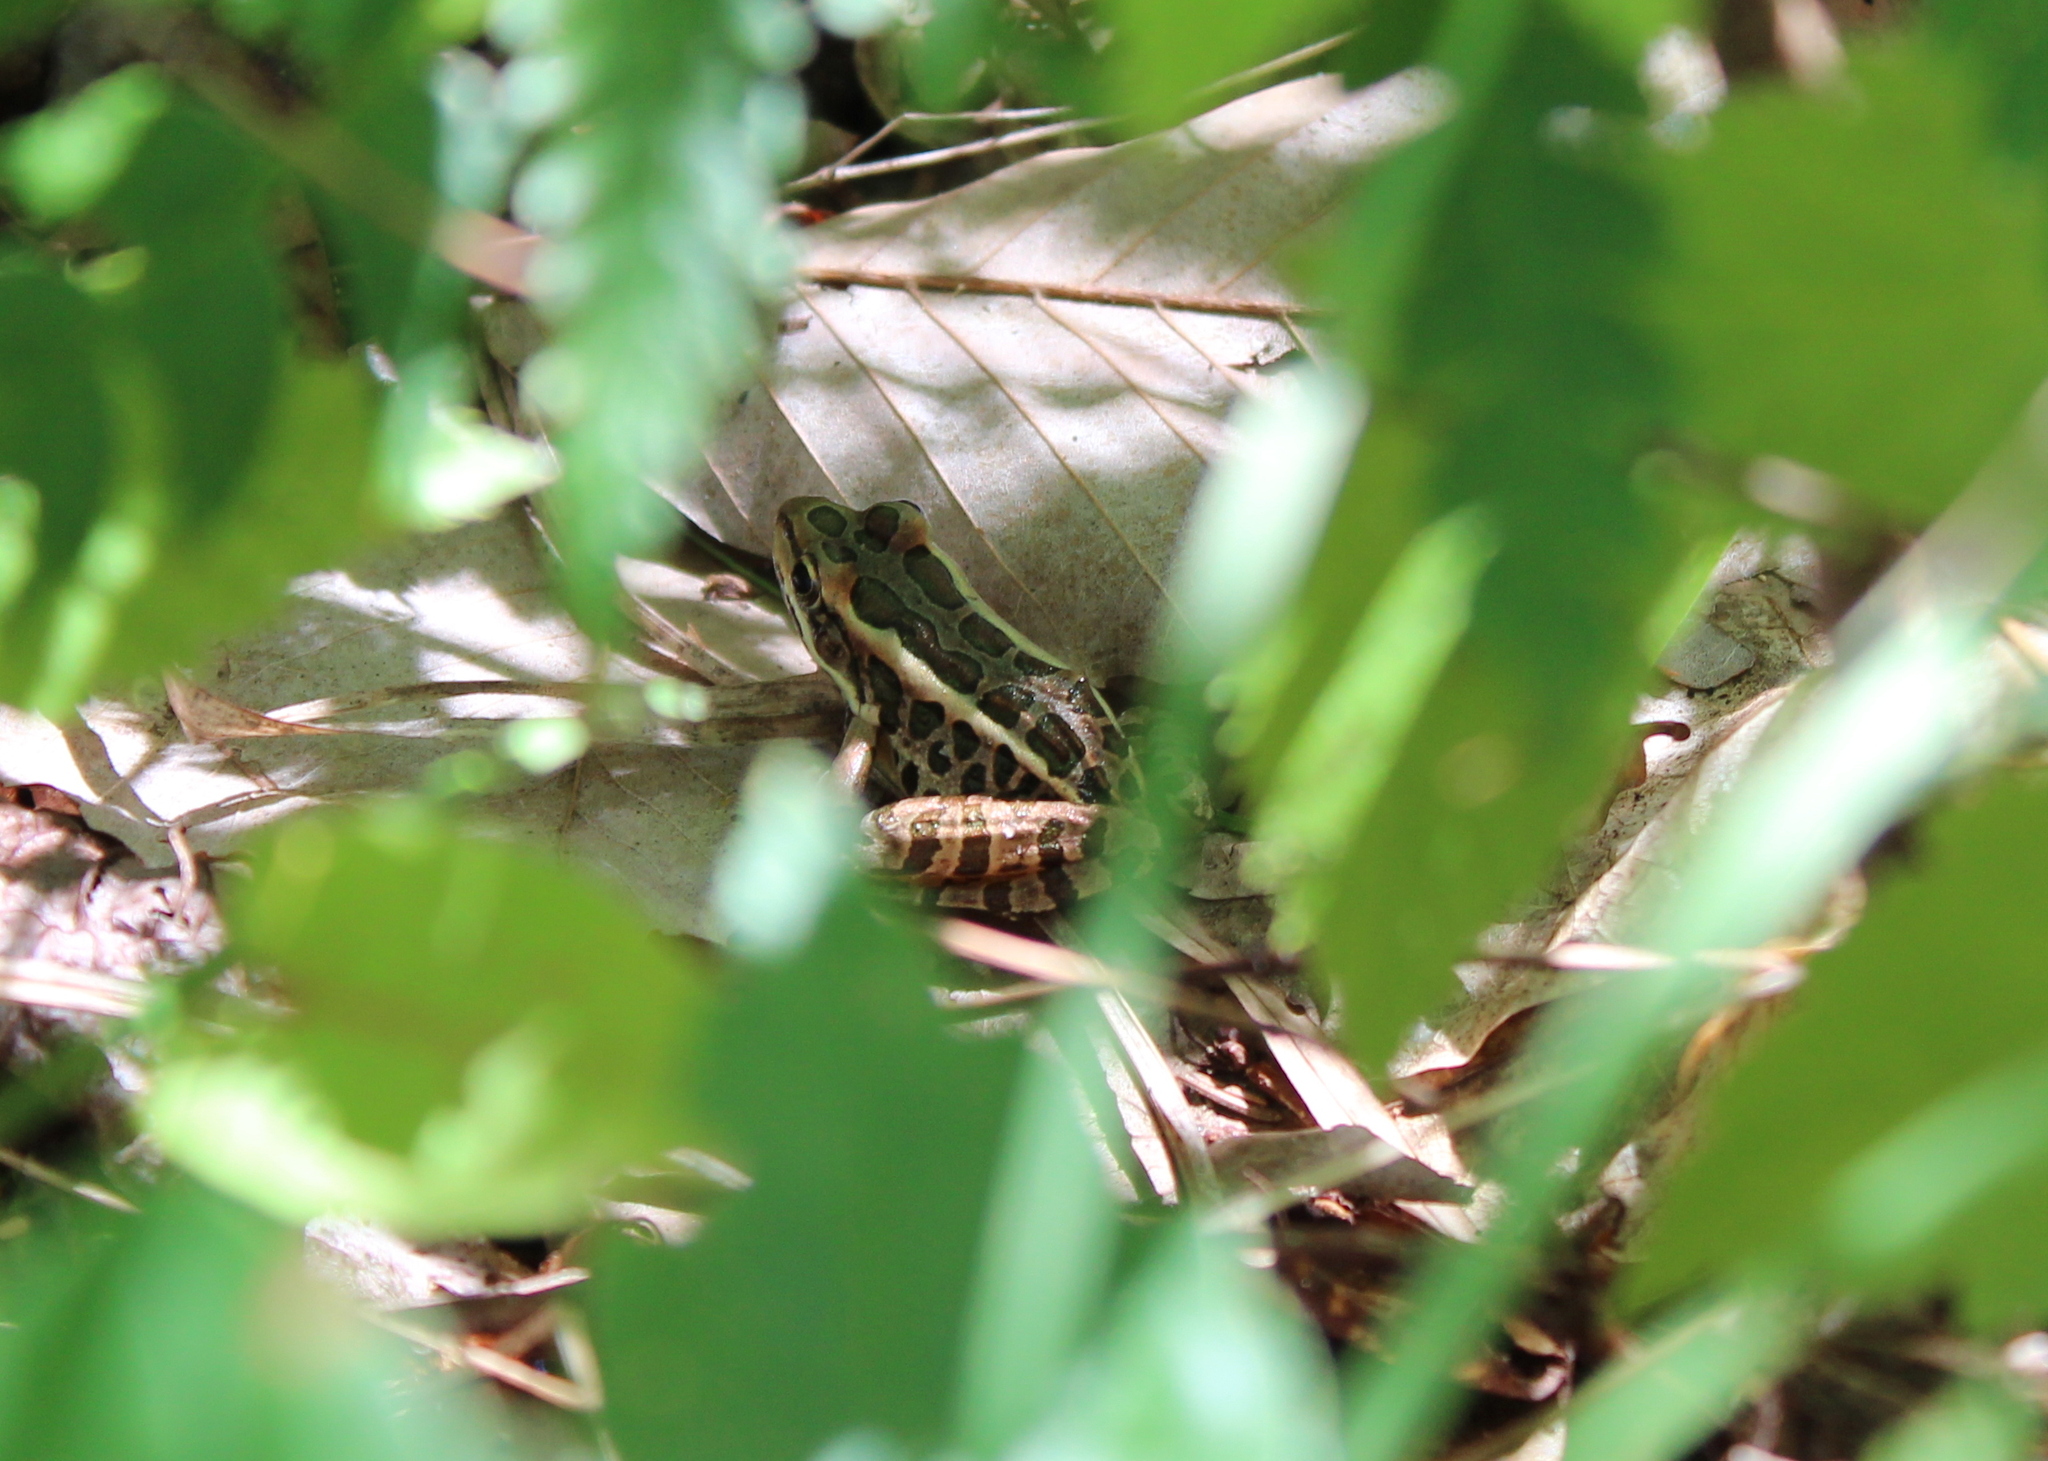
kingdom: Animalia
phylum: Chordata
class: Amphibia
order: Anura
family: Ranidae
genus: Lithobates
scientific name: Lithobates palustris
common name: Pickerel frog
